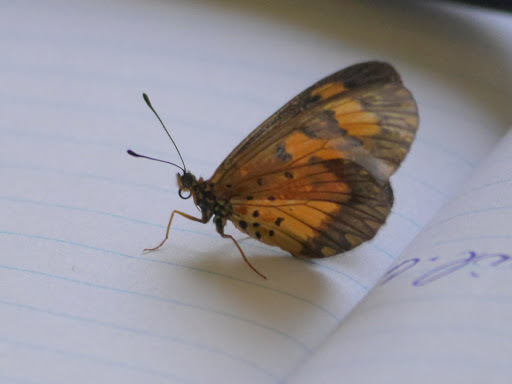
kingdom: Animalia
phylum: Arthropoda
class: Insecta
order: Lepidoptera
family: Nymphalidae
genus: Acraea
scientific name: Acraea Telchinia acerata
